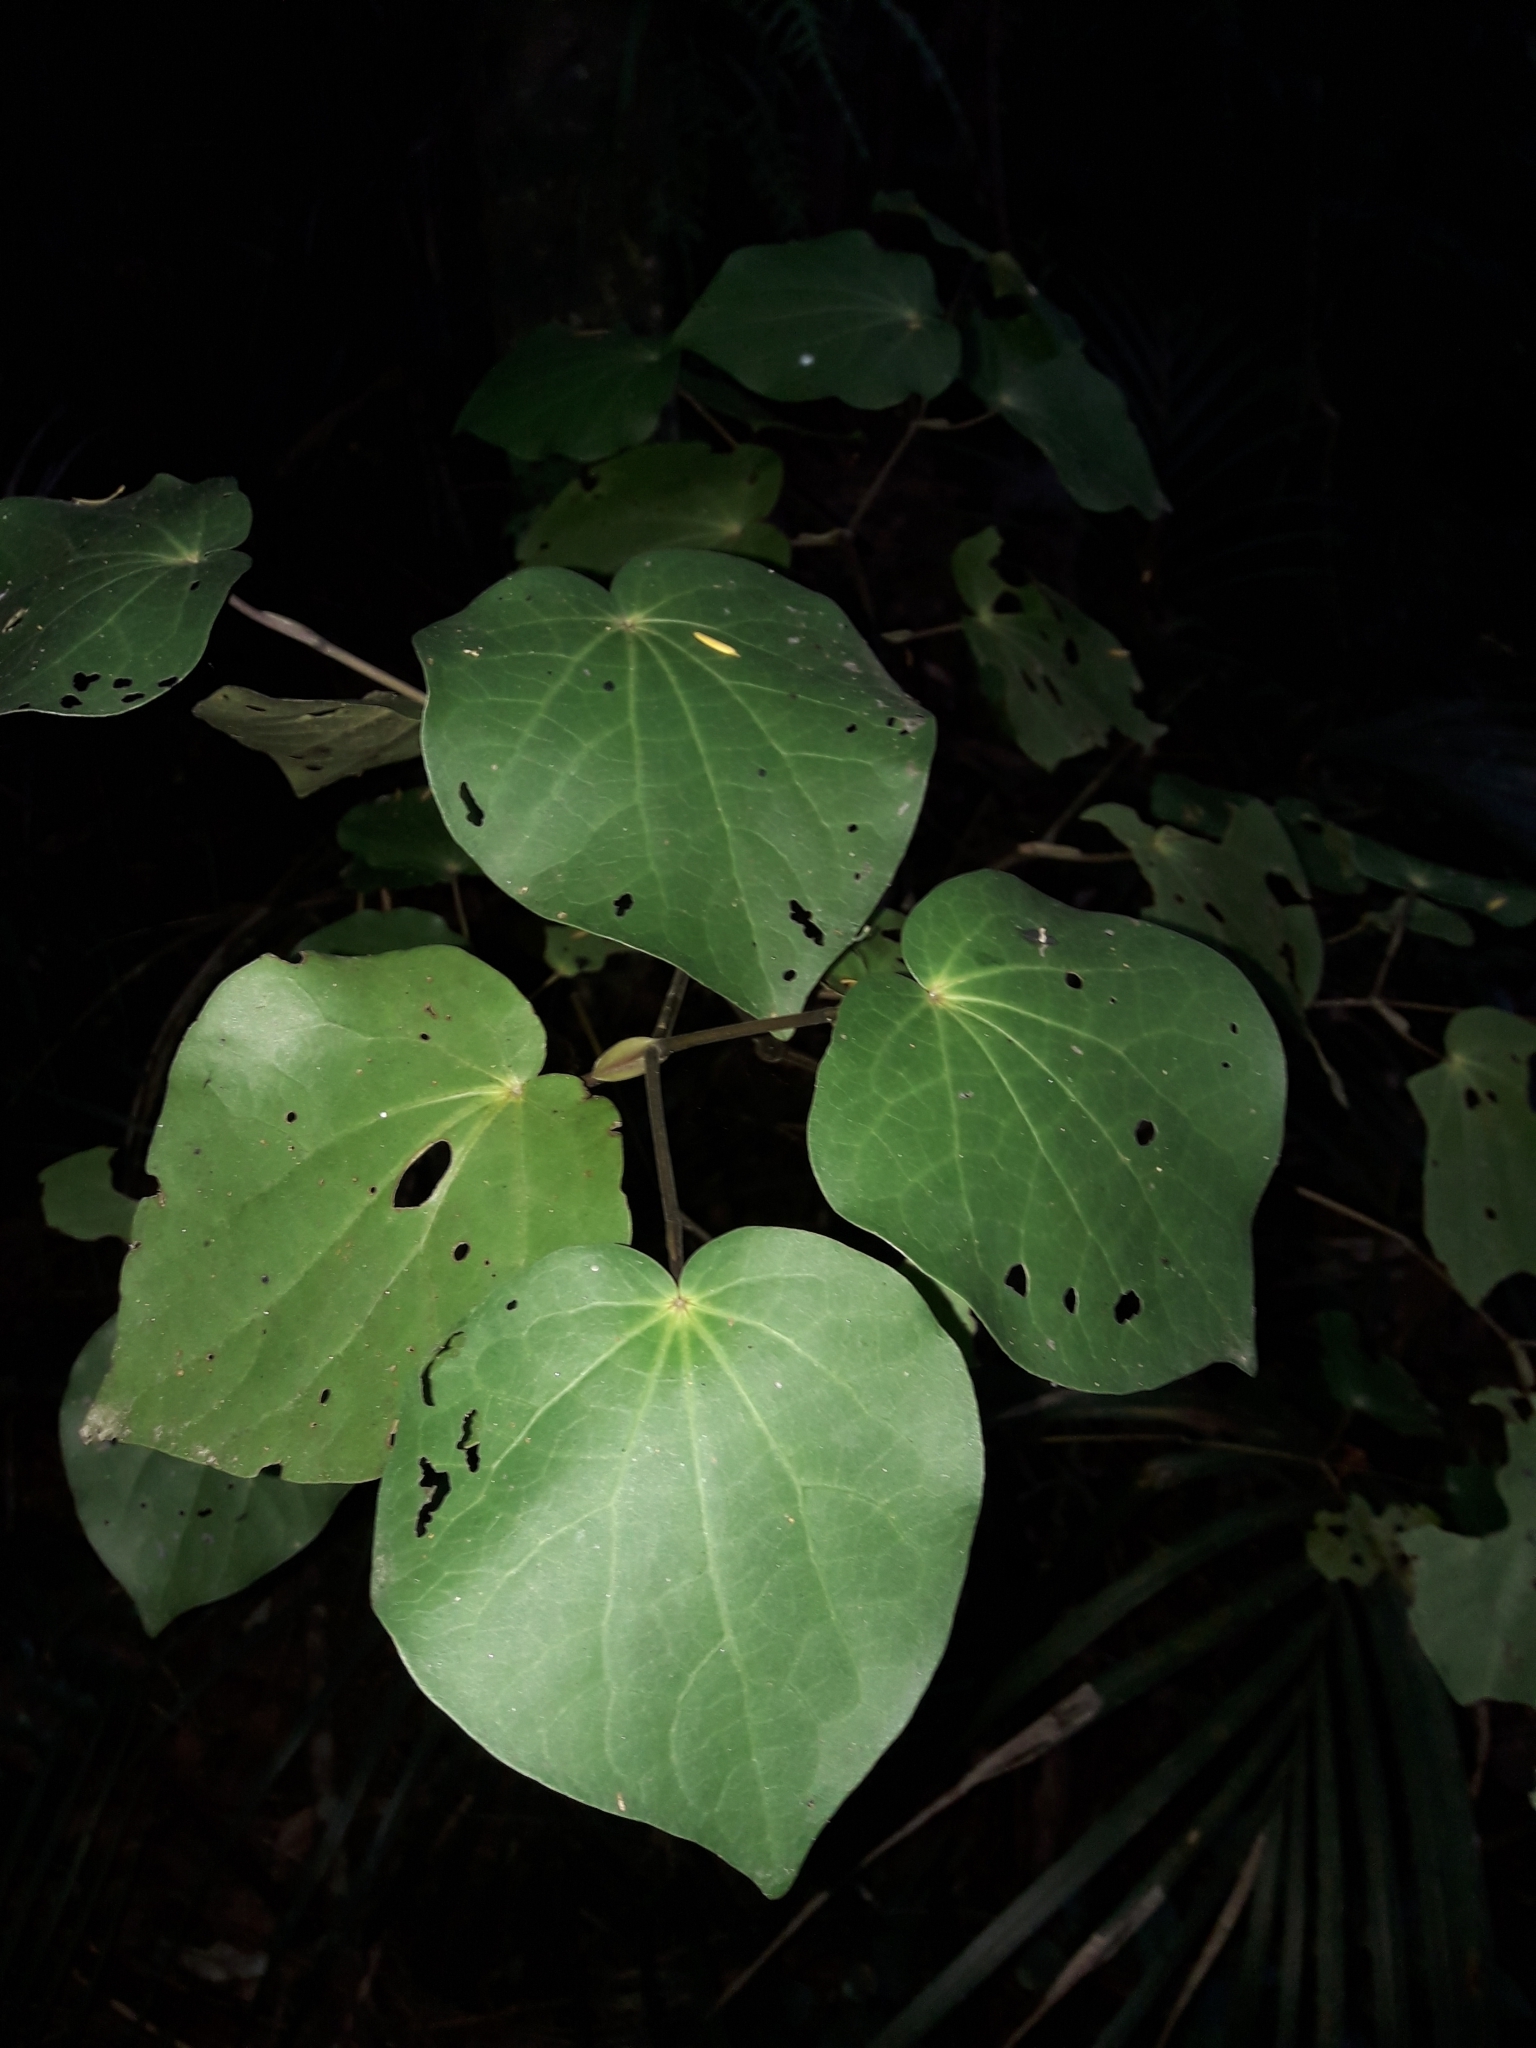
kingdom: Plantae
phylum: Tracheophyta
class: Magnoliopsida
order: Piperales
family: Piperaceae
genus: Macropiper
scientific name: Macropiper excelsum
